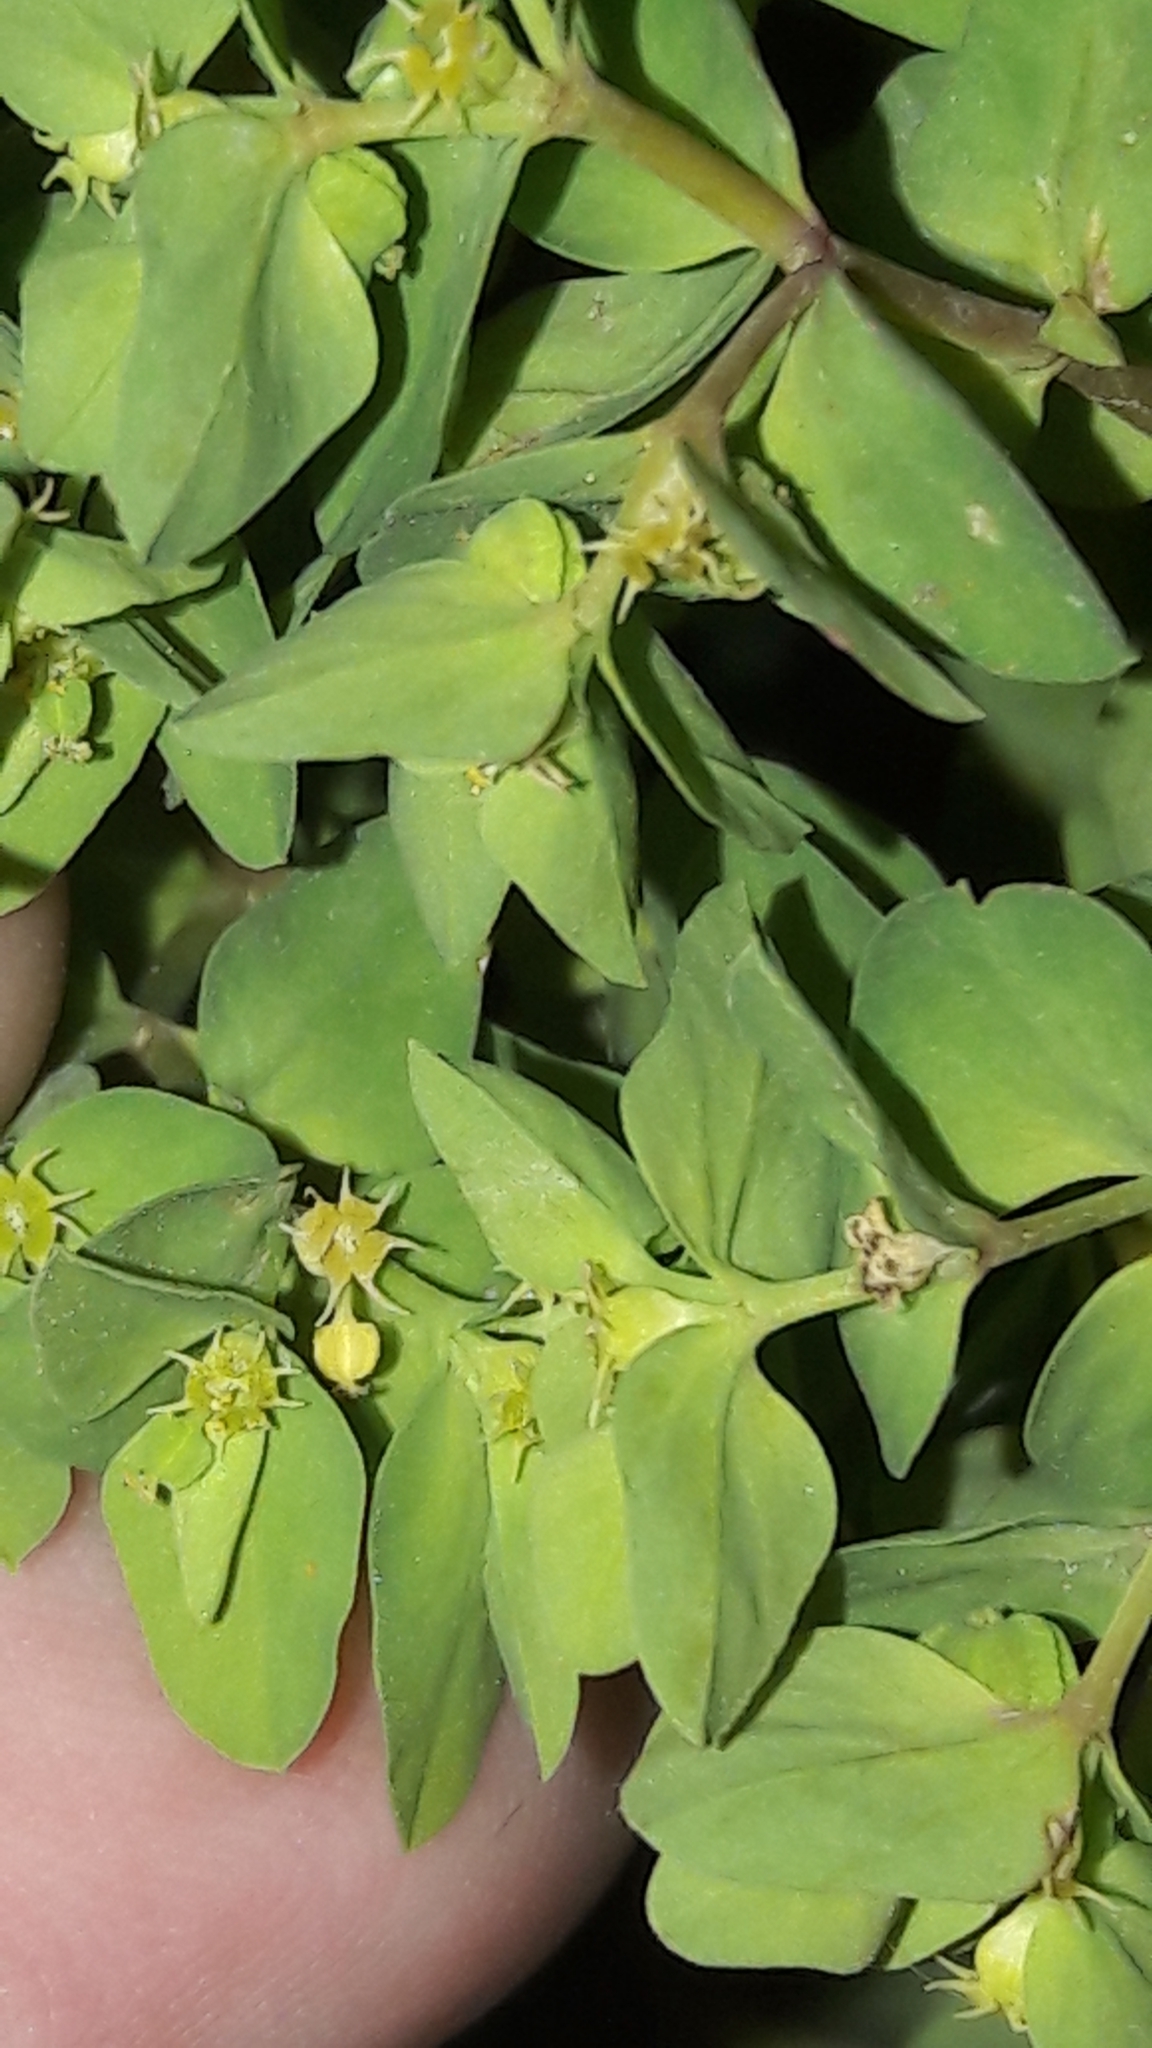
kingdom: Plantae
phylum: Tracheophyta
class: Magnoliopsida
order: Malpighiales
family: Euphorbiaceae
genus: Euphorbia
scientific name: Euphorbia peplus
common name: Petty spurge
